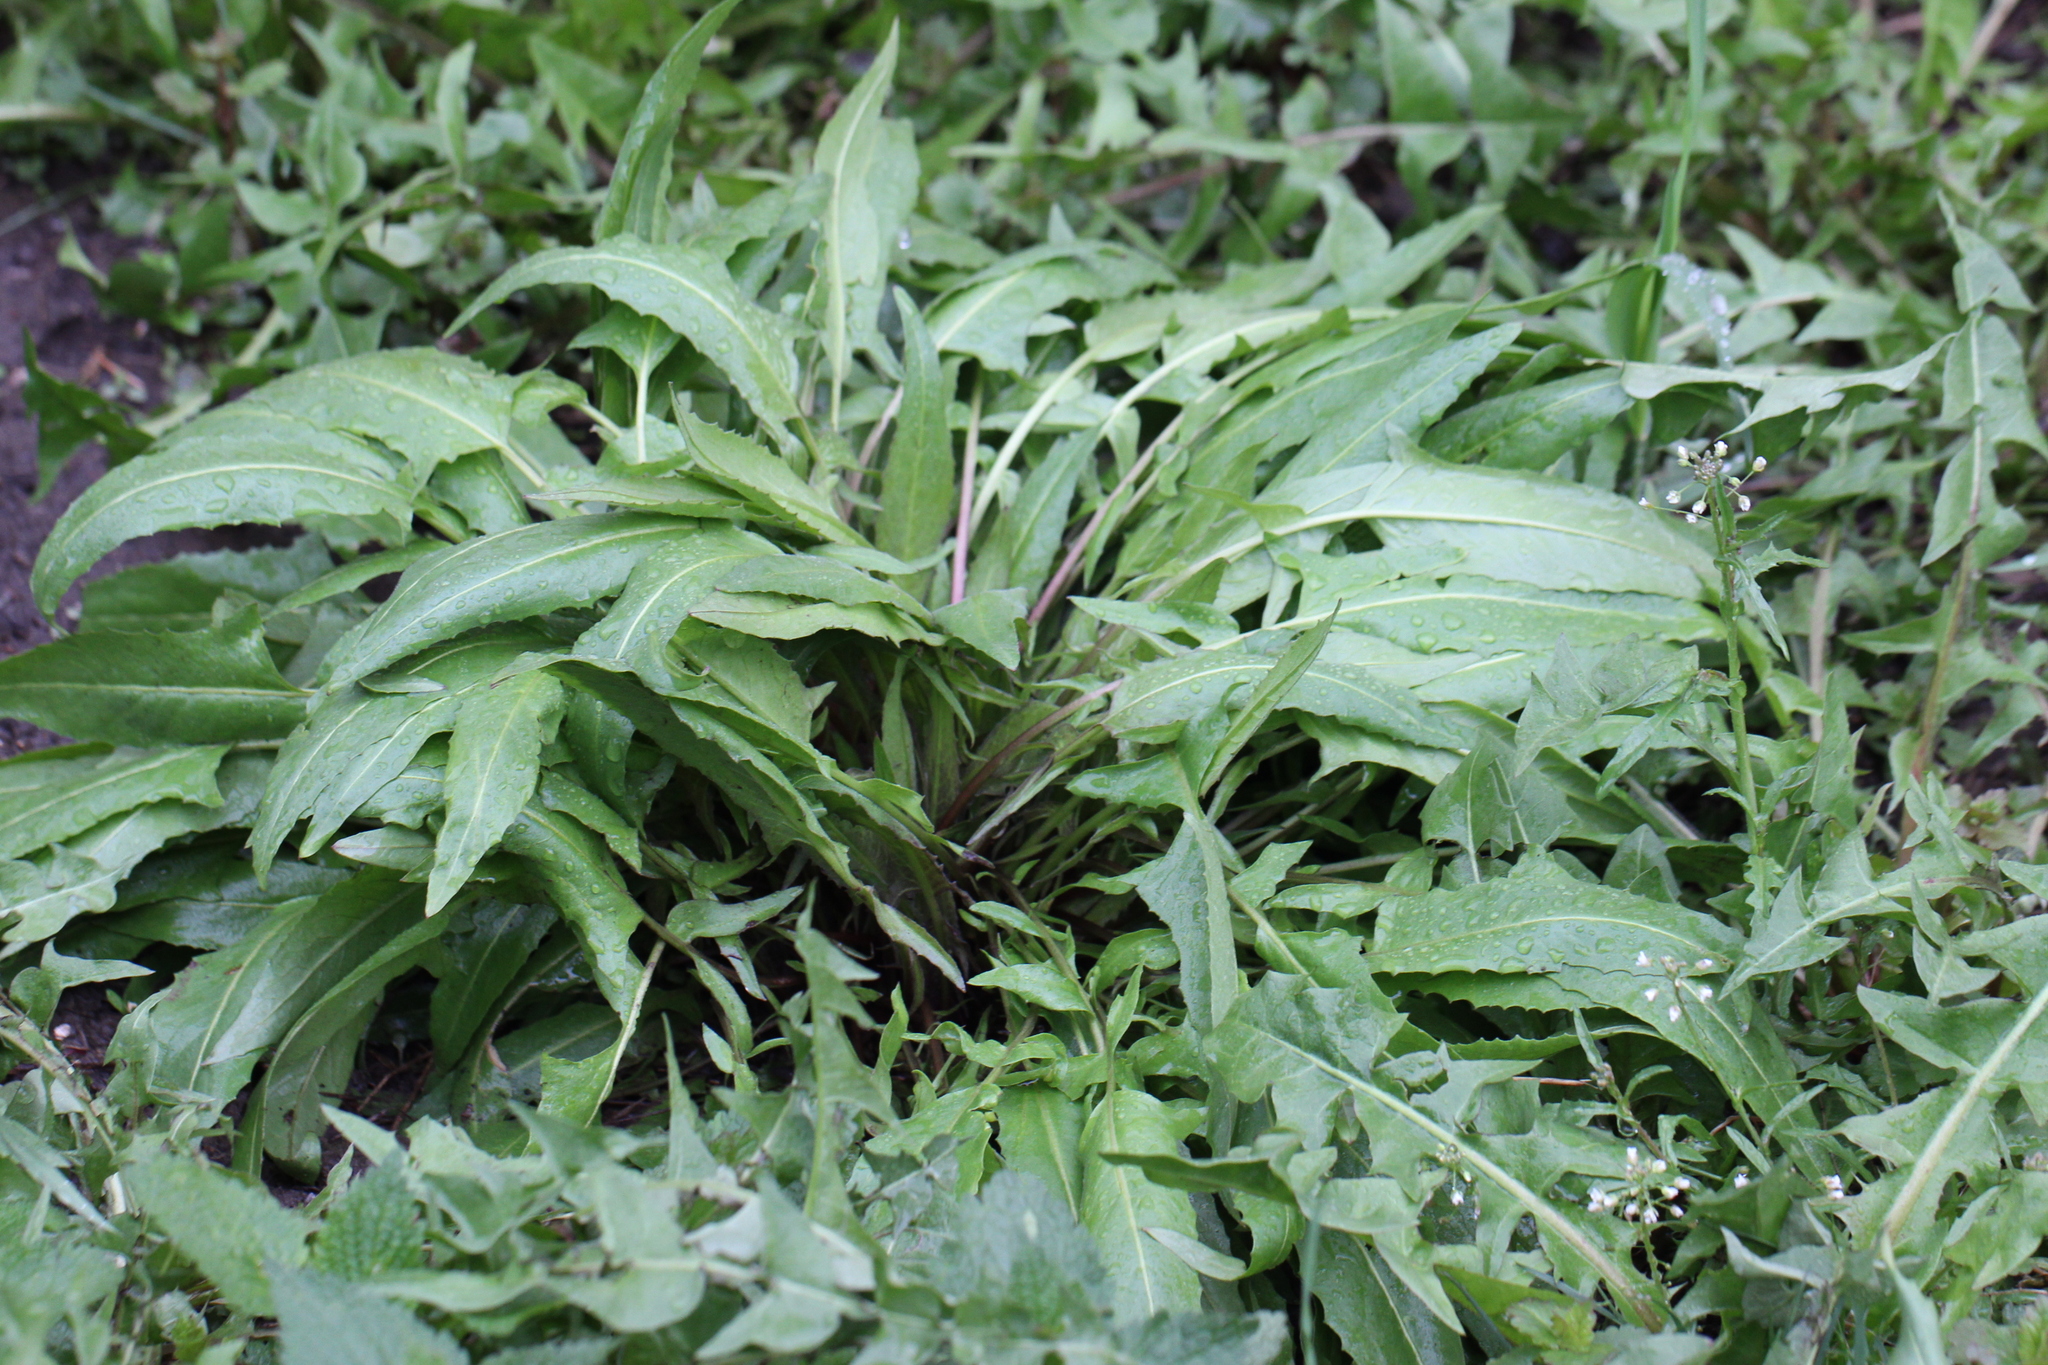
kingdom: Plantae
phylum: Tracheophyta
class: Magnoliopsida
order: Brassicales
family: Brassicaceae
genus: Bunias
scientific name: Bunias orientalis
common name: Warty-cabbage
